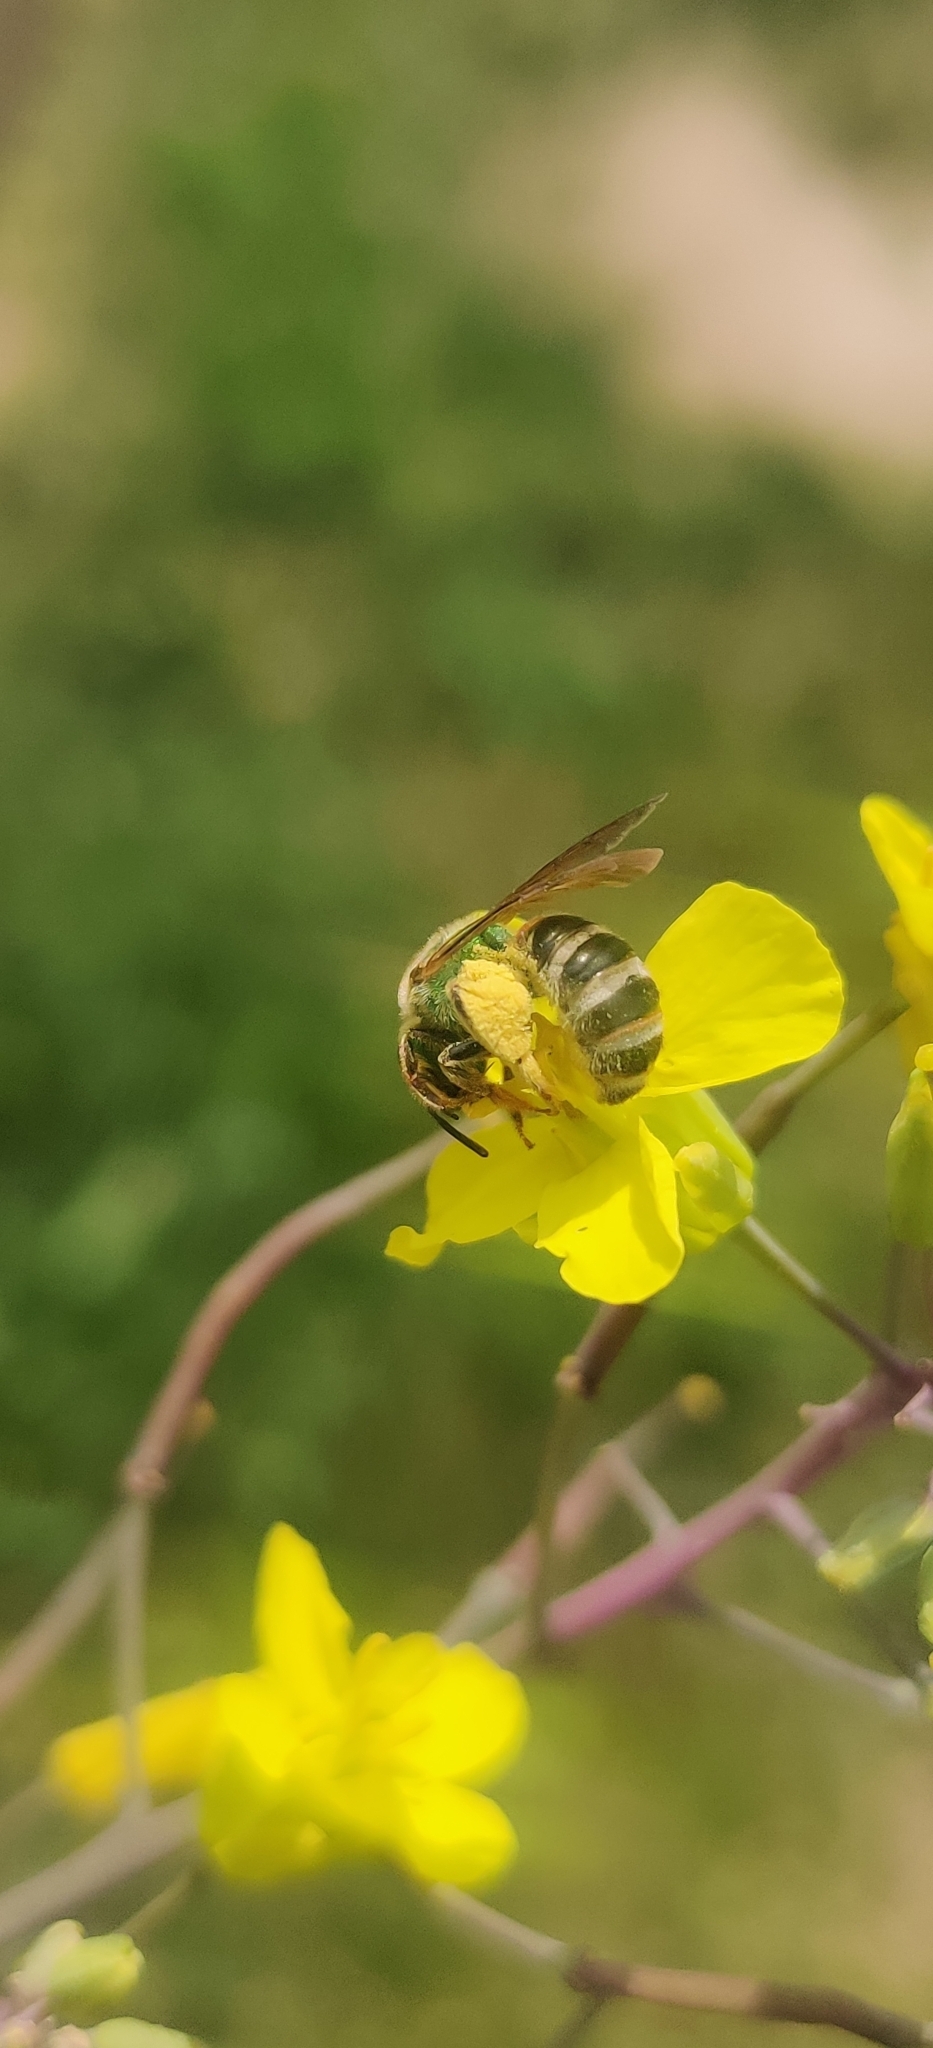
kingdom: Animalia
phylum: Arthropoda
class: Insecta
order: Hymenoptera
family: Halictidae
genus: Agapostemon
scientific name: Agapostemon virescens
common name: Bicolored striped sweat bee
